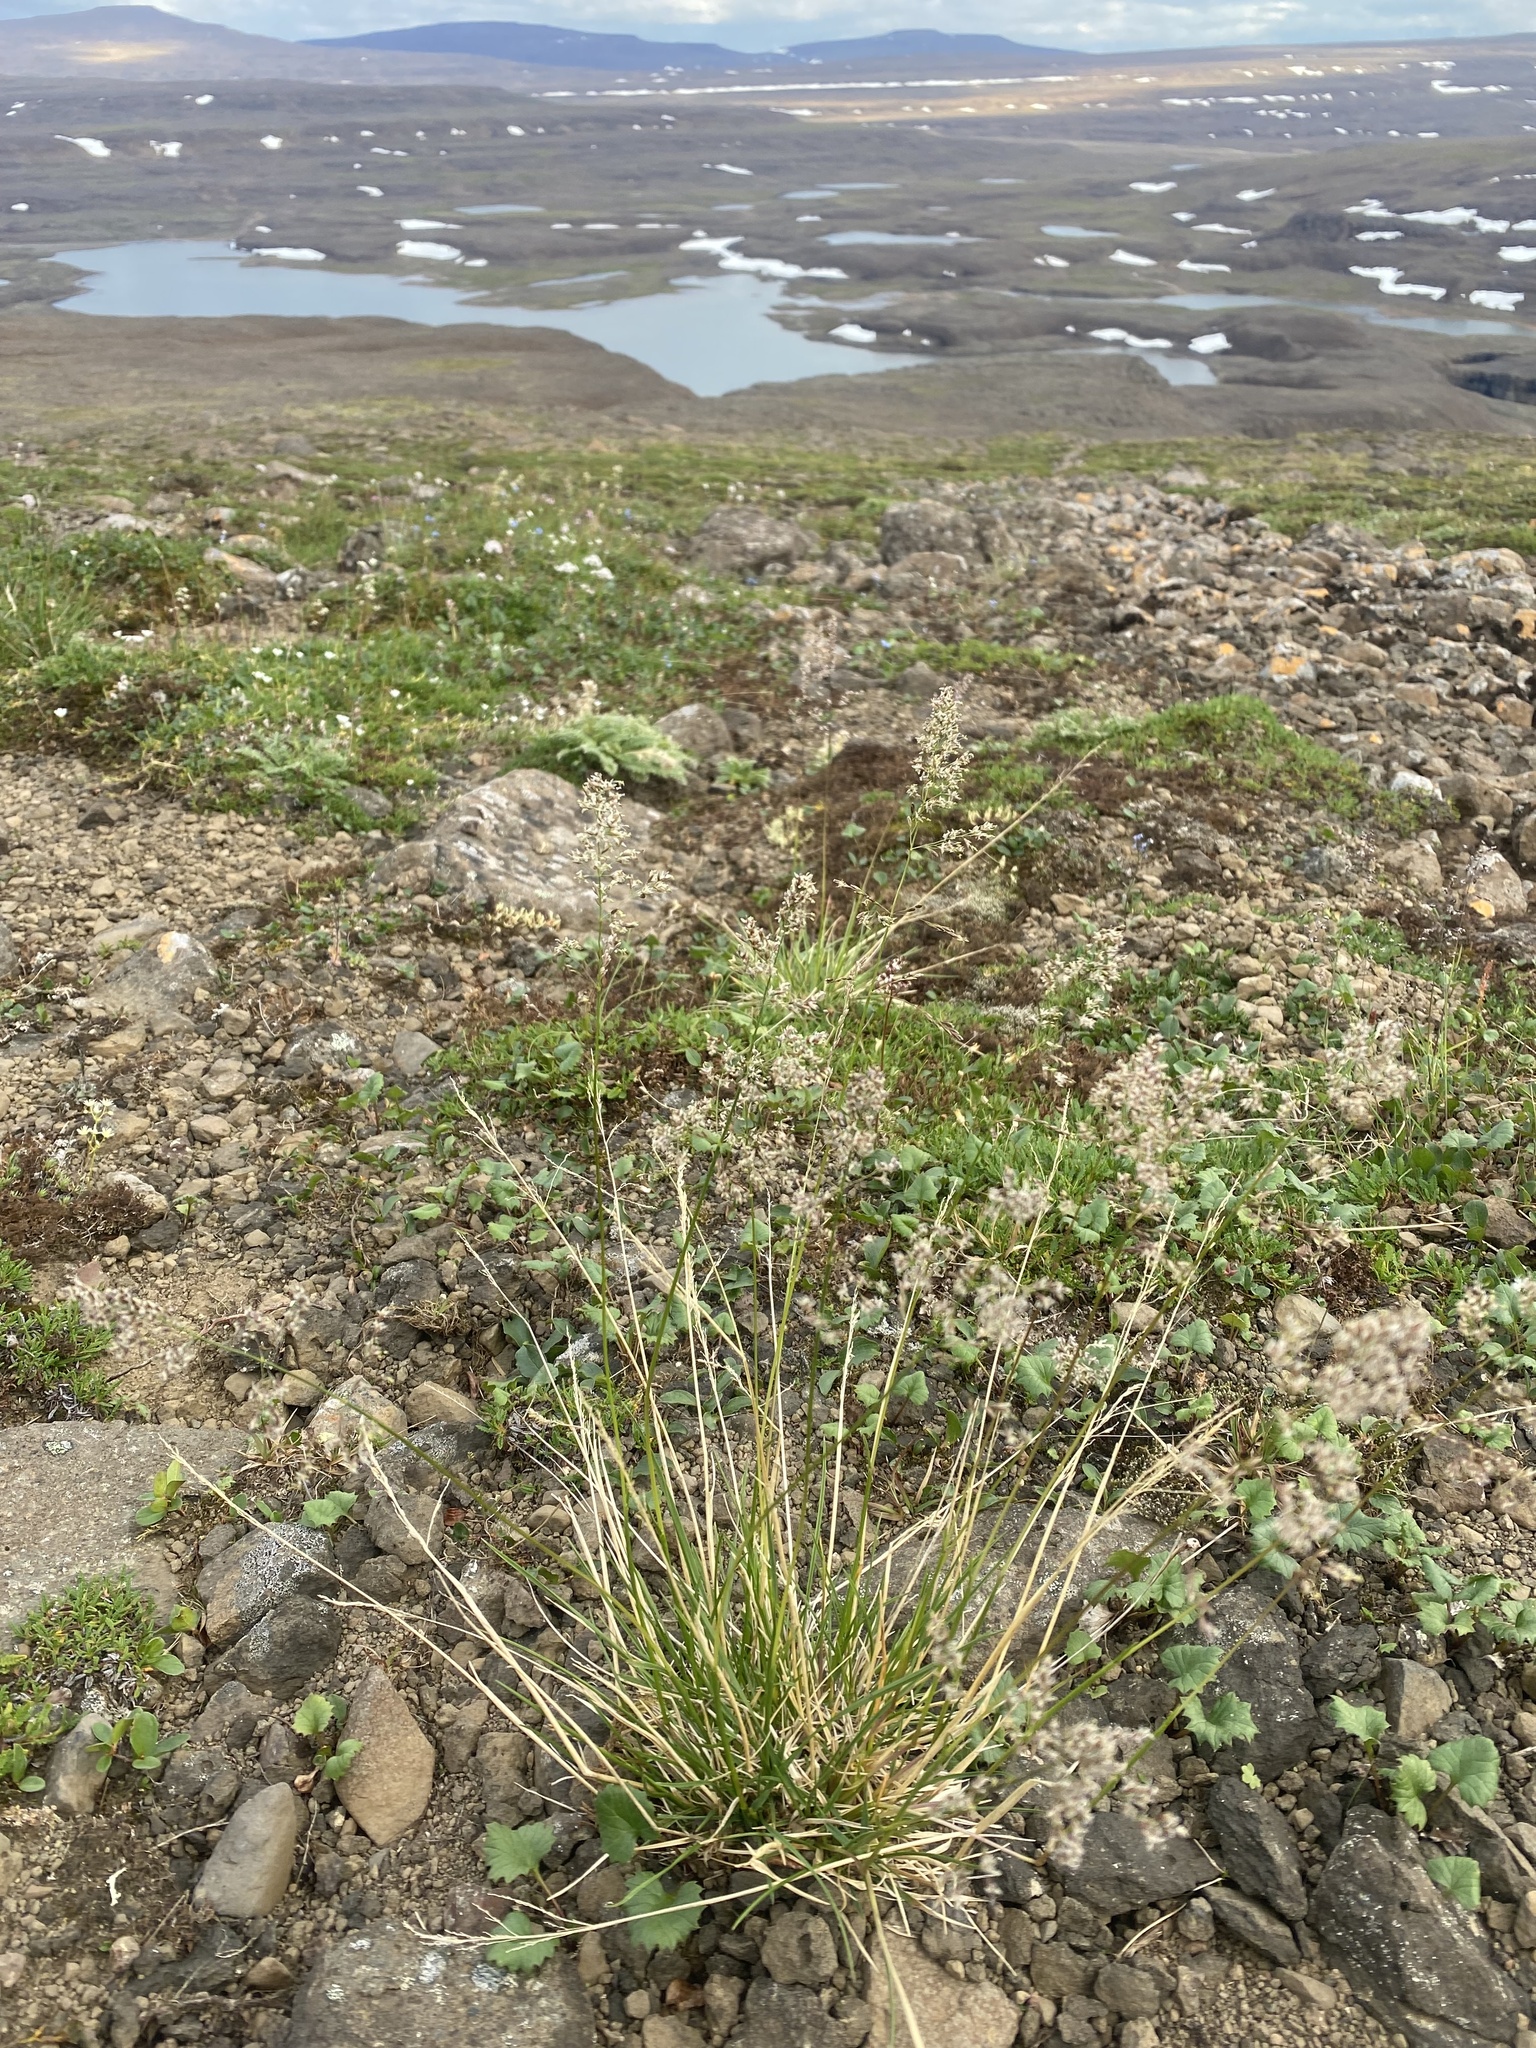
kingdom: Plantae
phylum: Tracheophyta
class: Liliopsida
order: Poales
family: Poaceae
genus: Deschampsia
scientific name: Deschampsia cespitosa
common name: Tufted hair-grass
